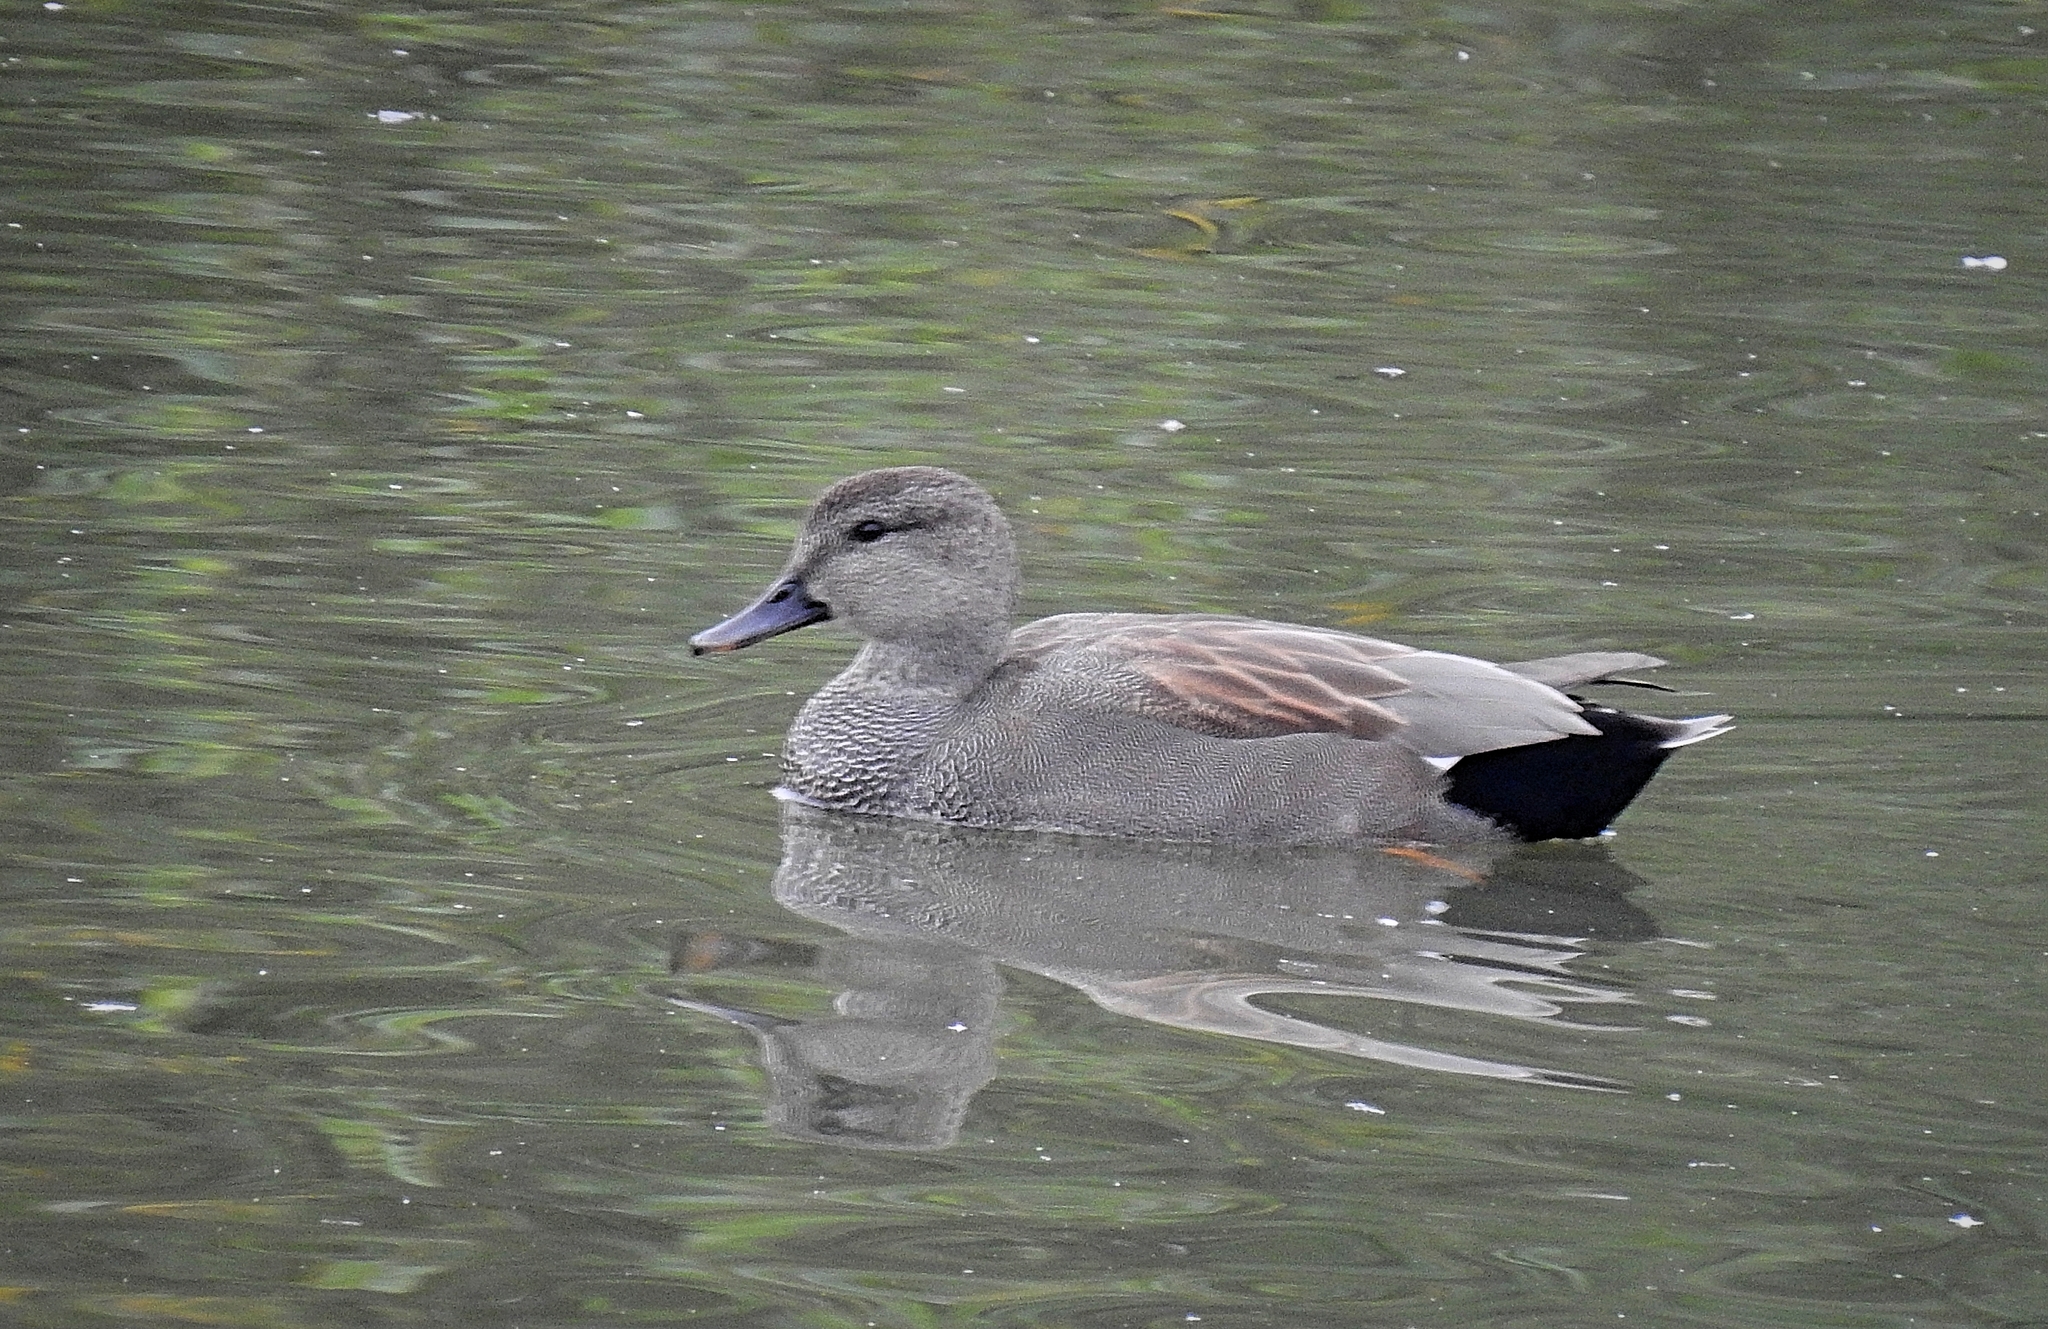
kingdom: Animalia
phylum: Chordata
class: Aves
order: Anseriformes
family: Anatidae
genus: Mareca
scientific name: Mareca strepera
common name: Gadwall
